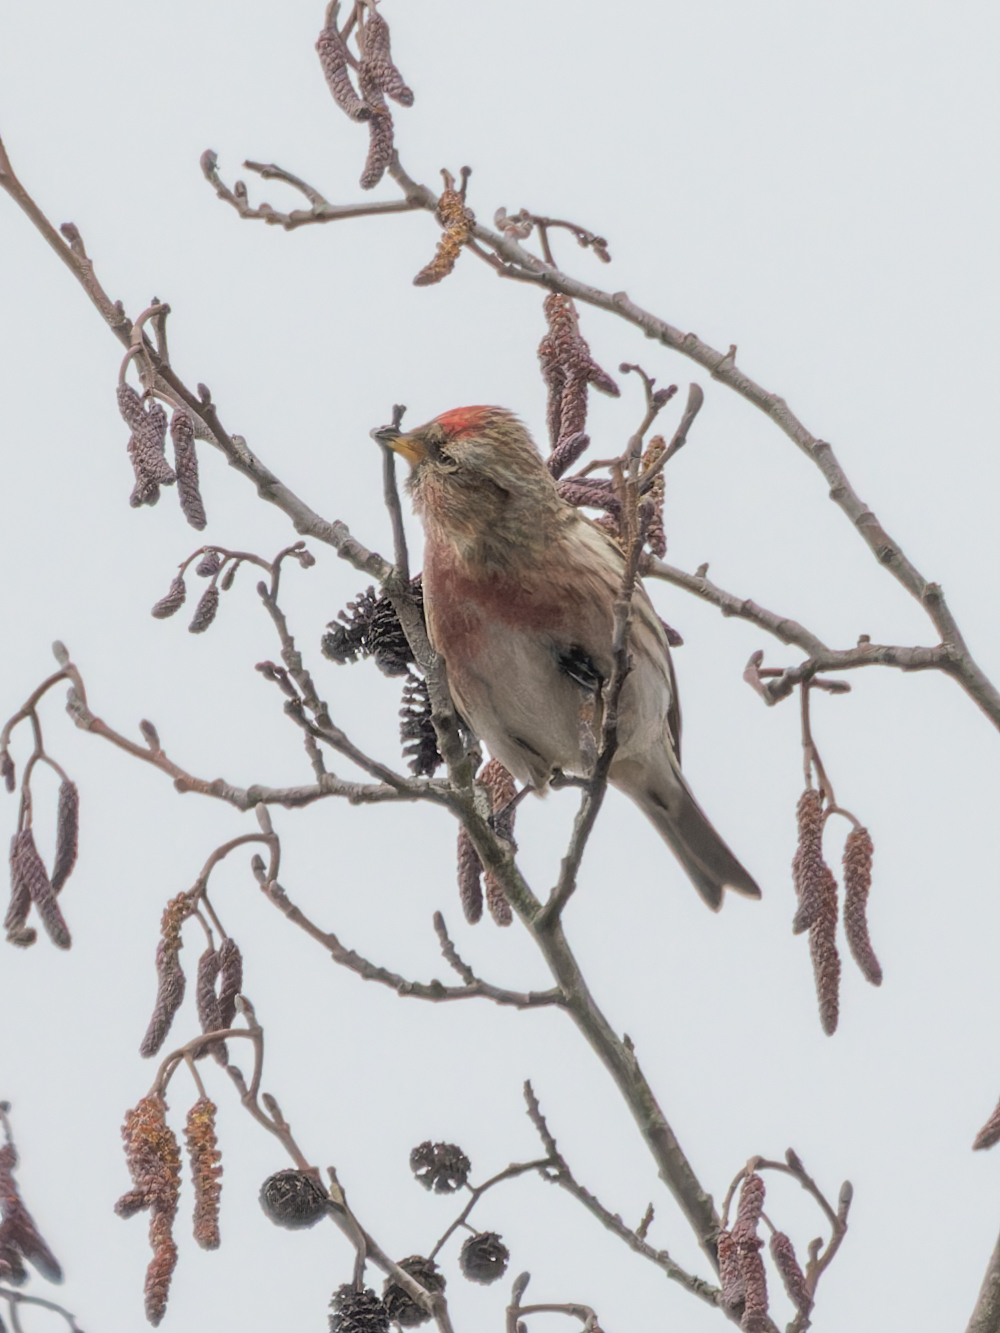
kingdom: Animalia
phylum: Chordata
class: Aves
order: Passeriformes
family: Fringillidae
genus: Acanthis
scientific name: Acanthis flammea
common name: Common redpoll
